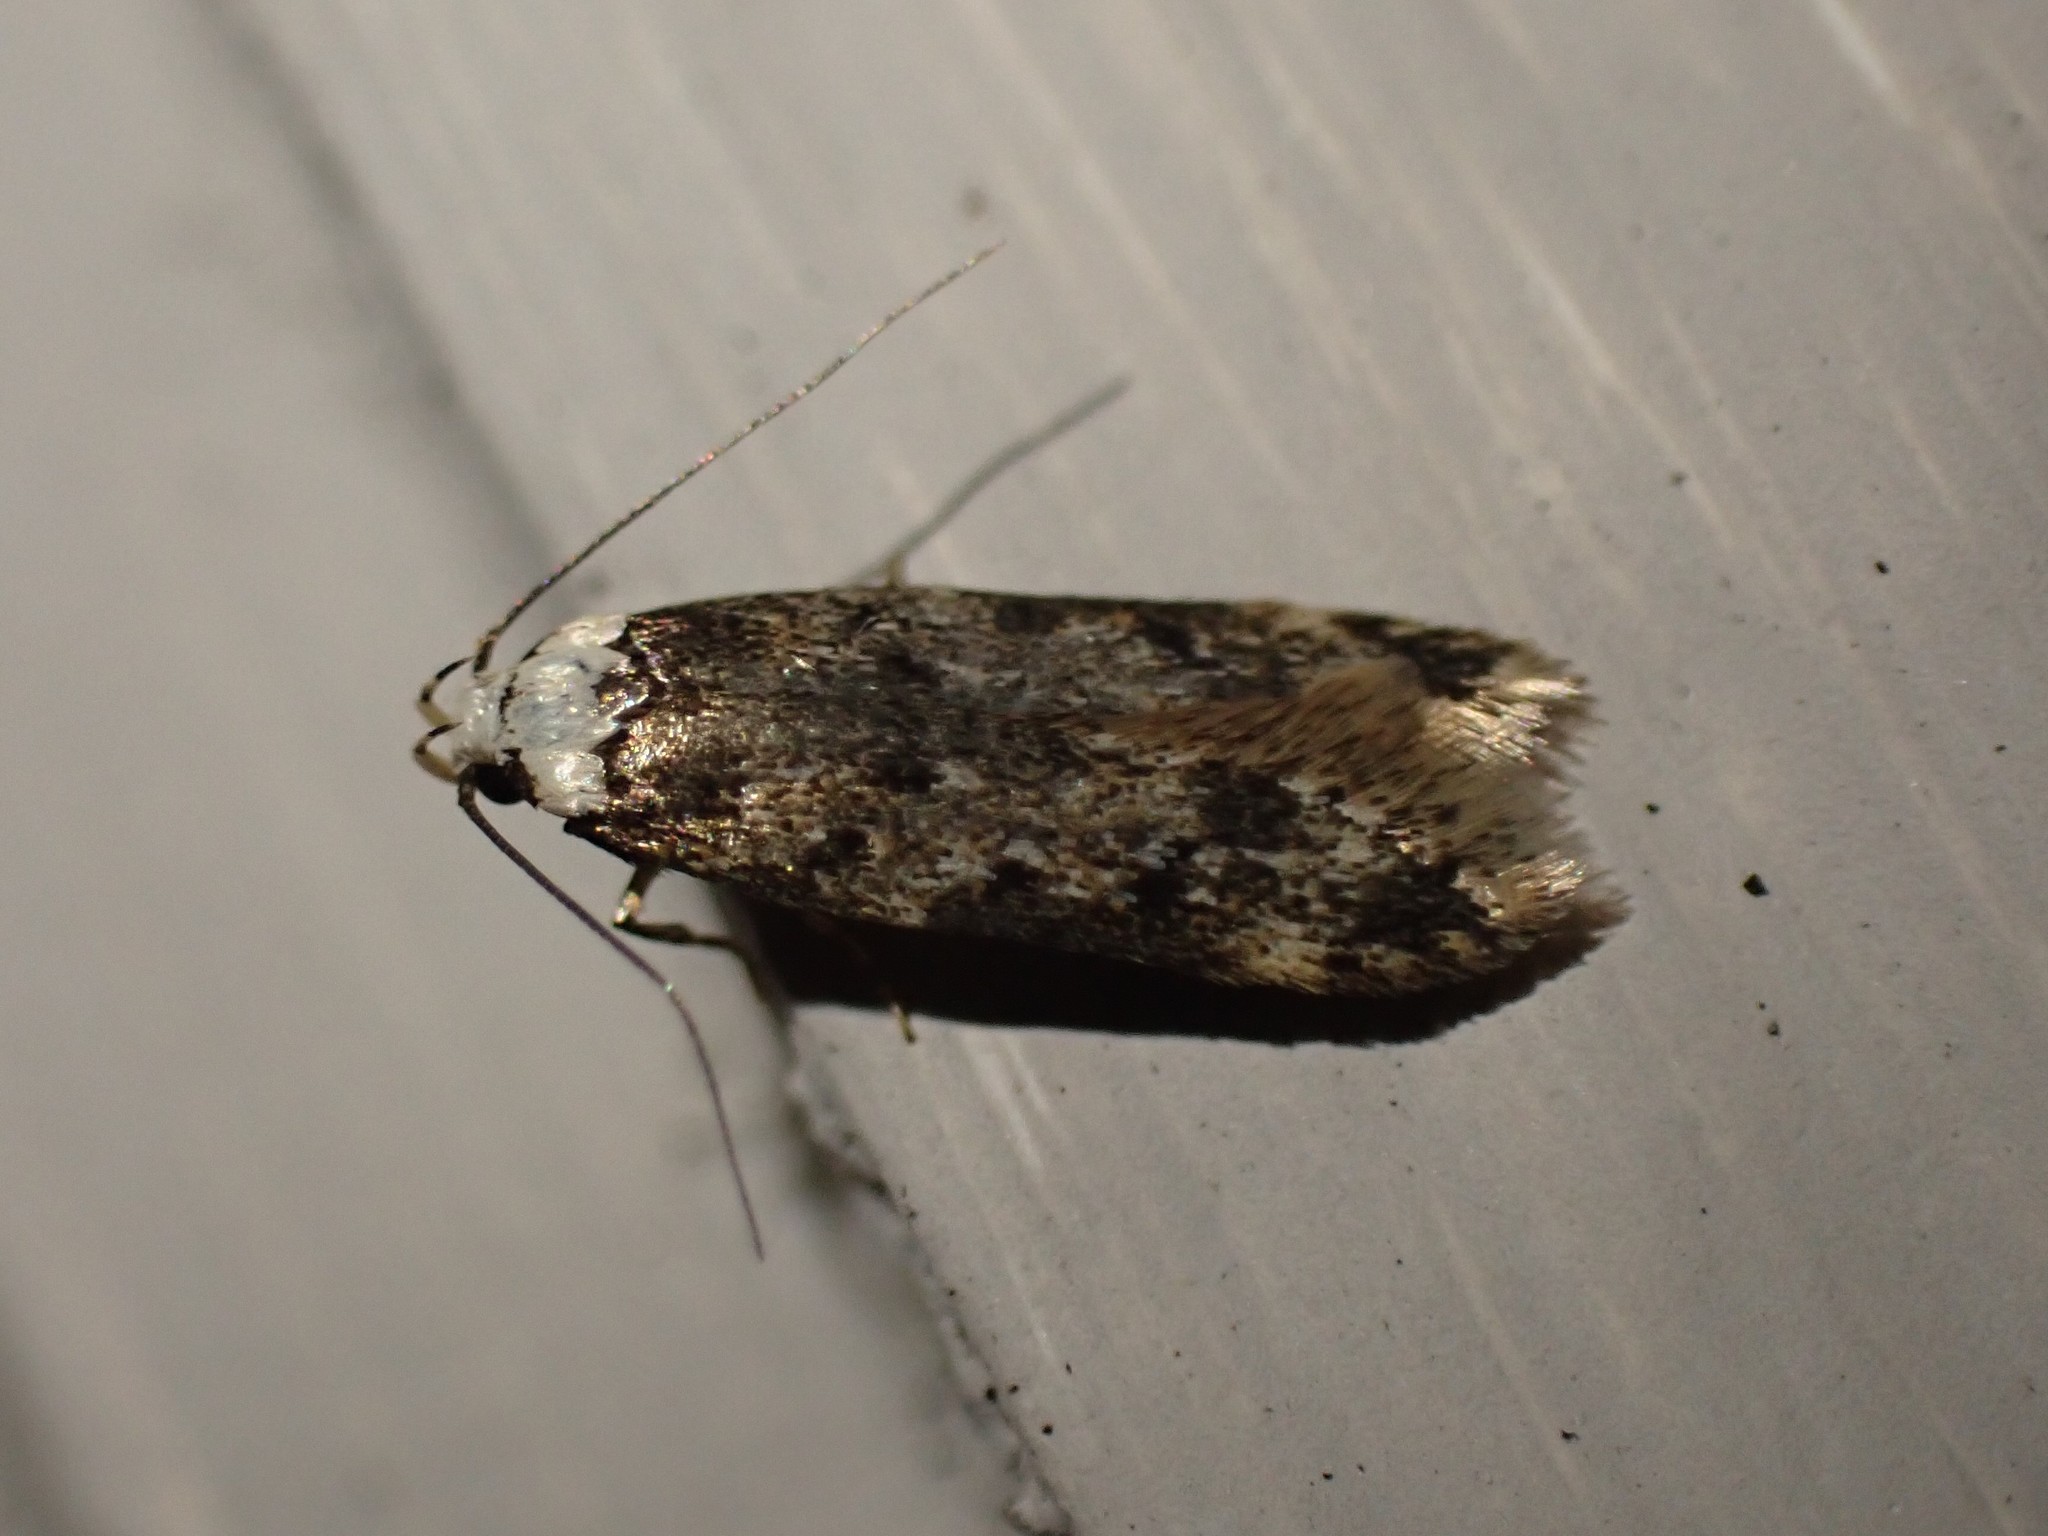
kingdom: Animalia
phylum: Arthropoda
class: Insecta
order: Lepidoptera
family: Oecophoridae
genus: Endrosis
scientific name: Endrosis sarcitrella
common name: White-shouldered house moth
